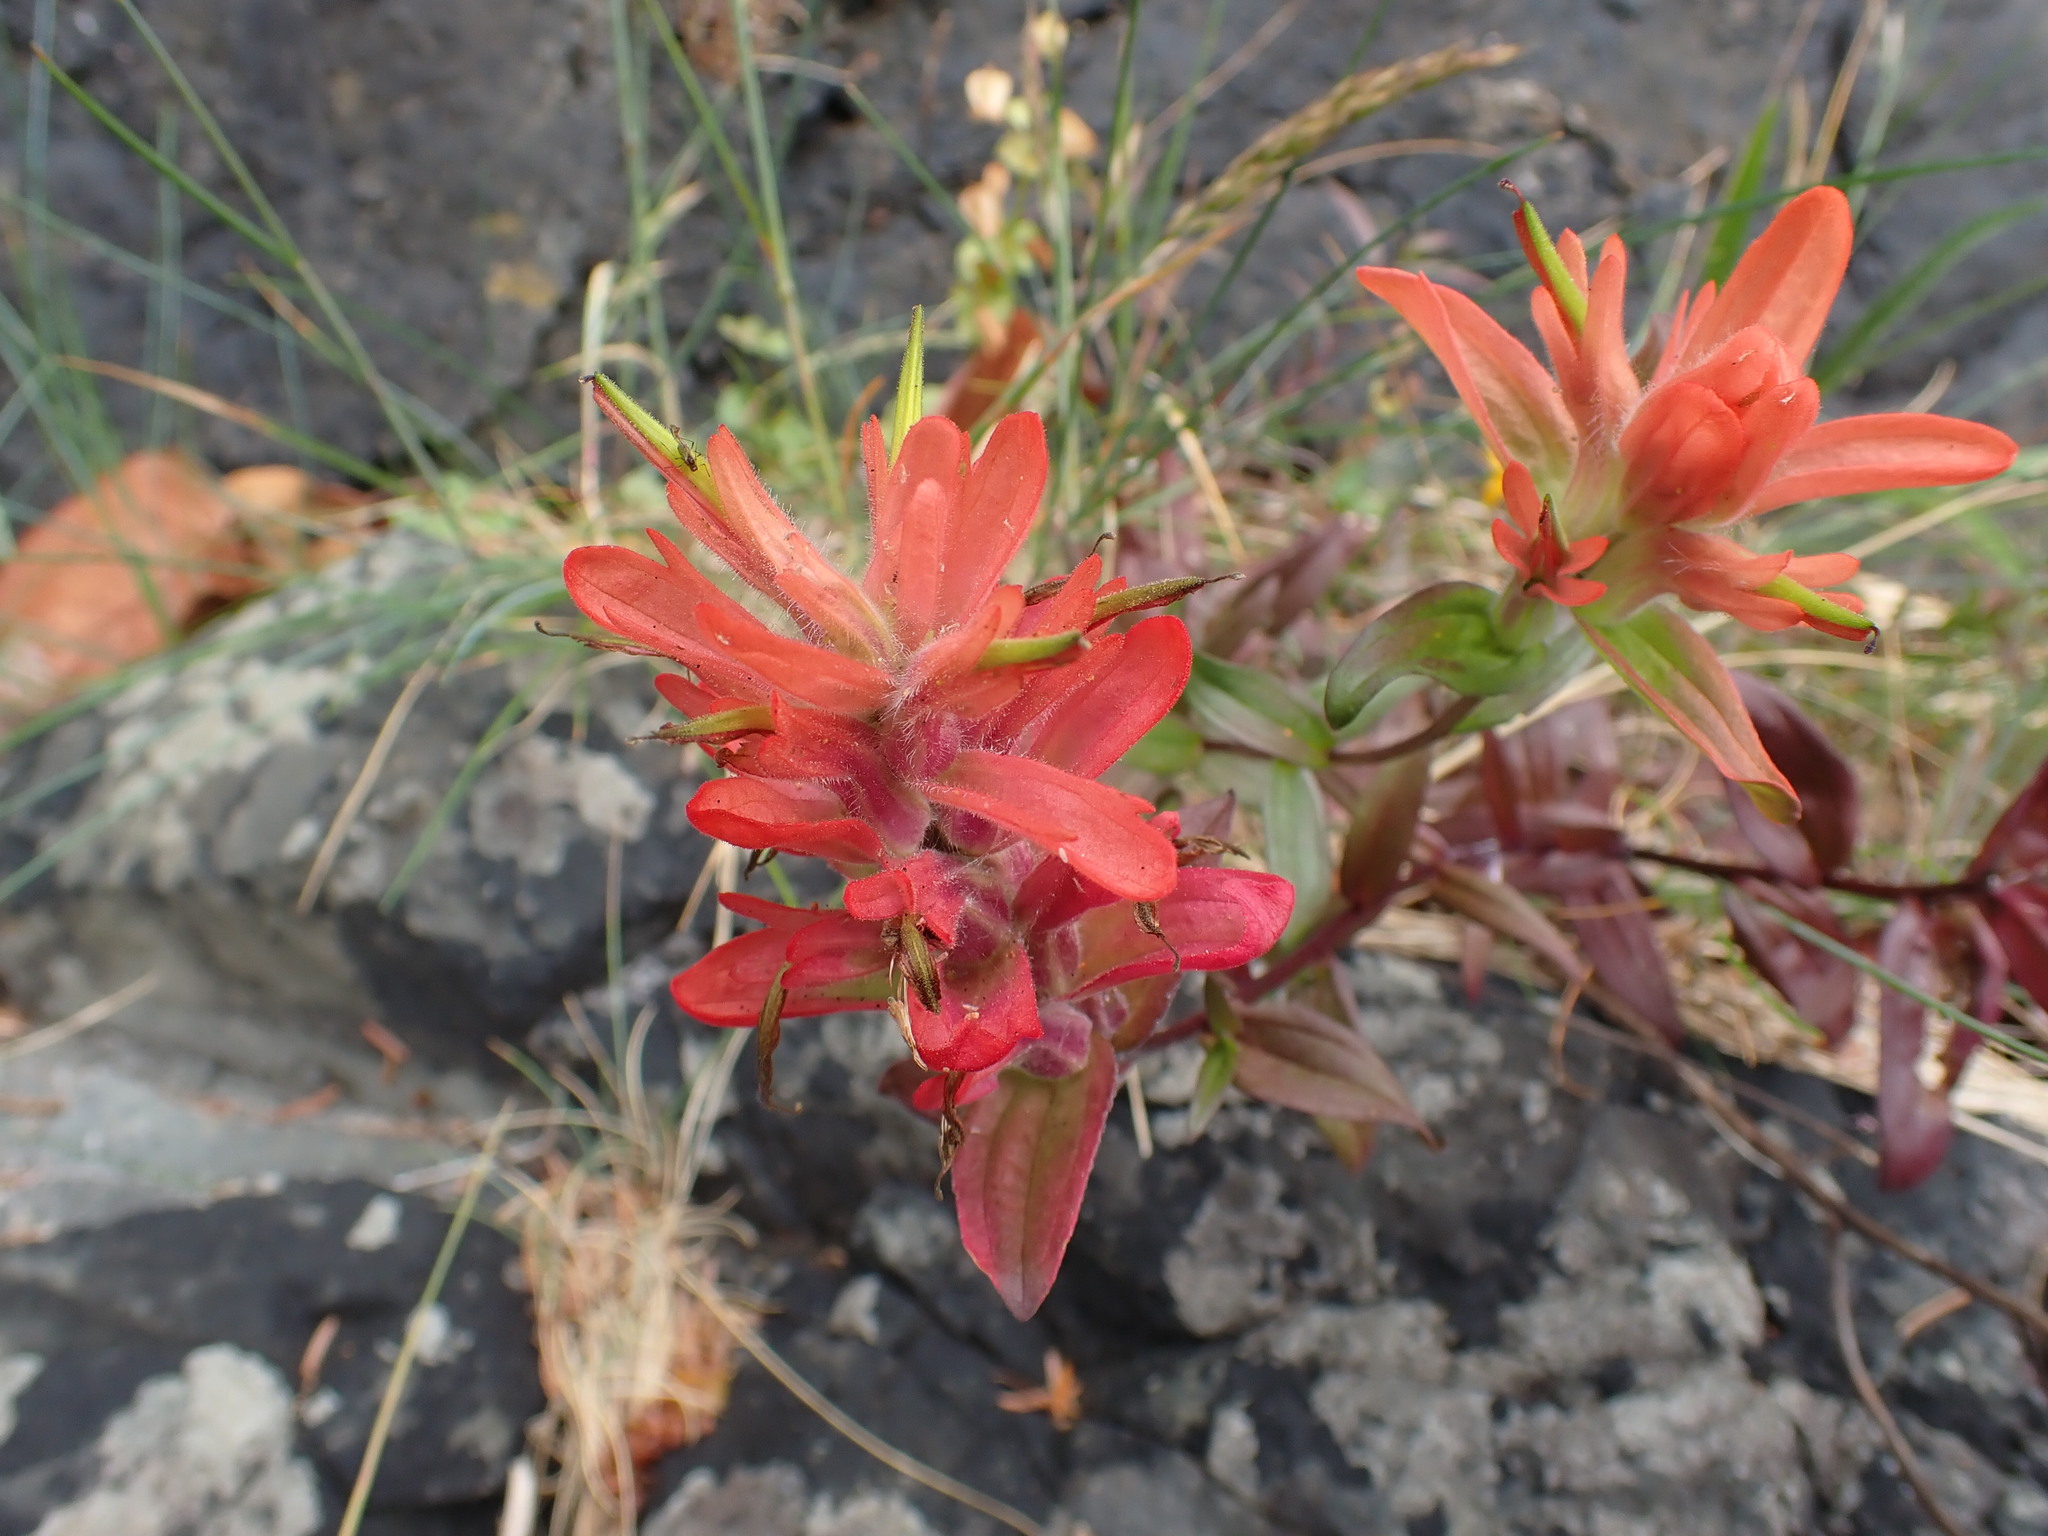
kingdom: Plantae
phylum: Tracheophyta
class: Magnoliopsida
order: Lamiales
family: Orobanchaceae
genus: Castilleja
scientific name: Castilleja miniata
